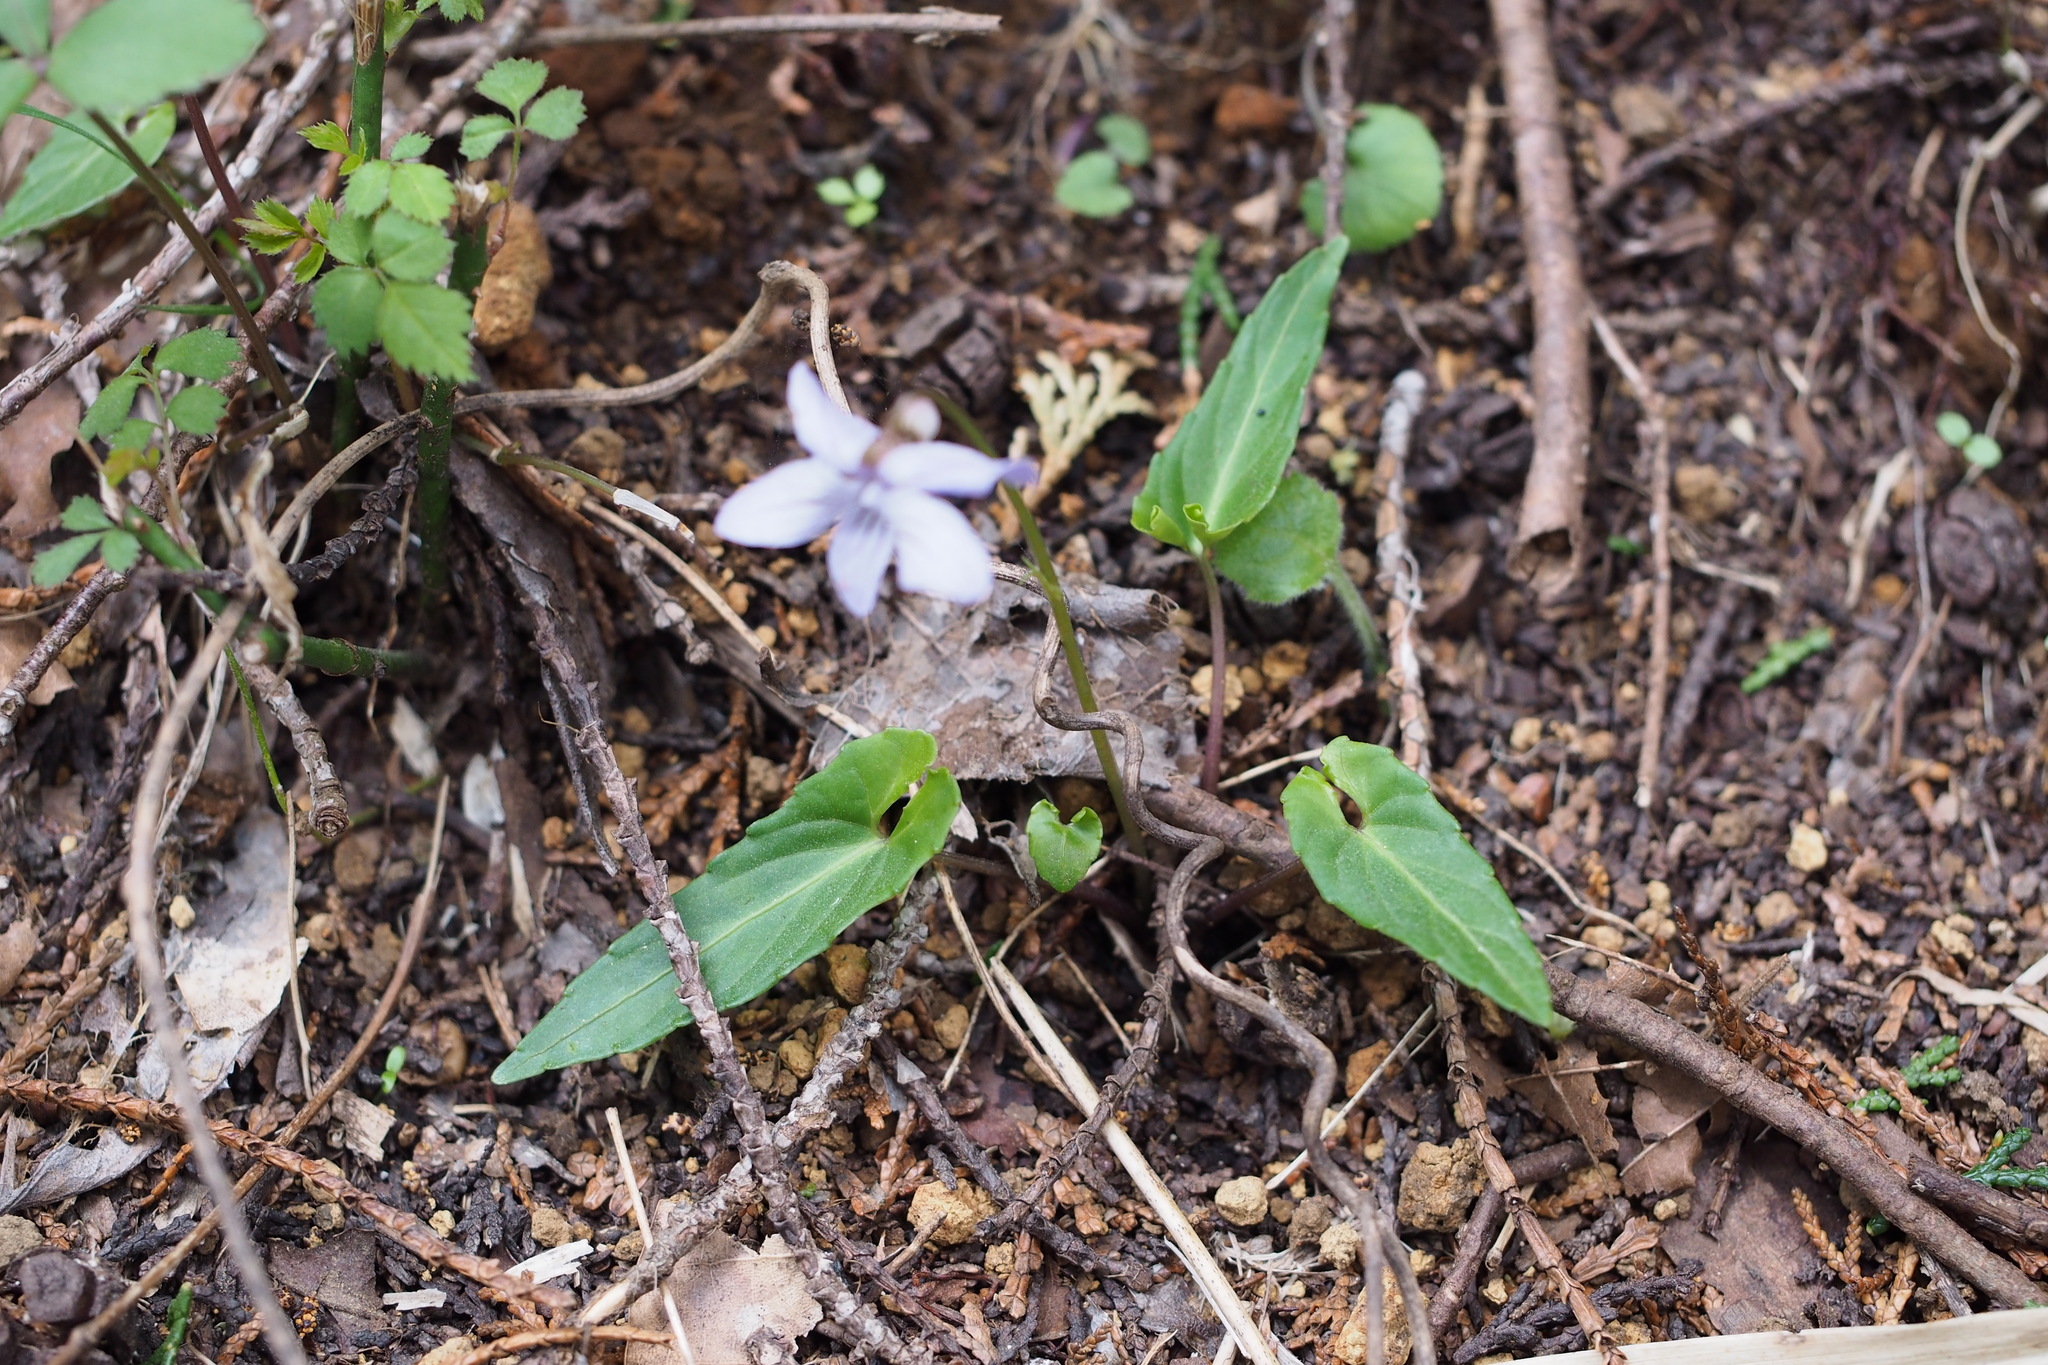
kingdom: Plantae
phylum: Tracheophyta
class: Magnoliopsida
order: Malpighiales
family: Violaceae
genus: Viola
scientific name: Viola bissetii
